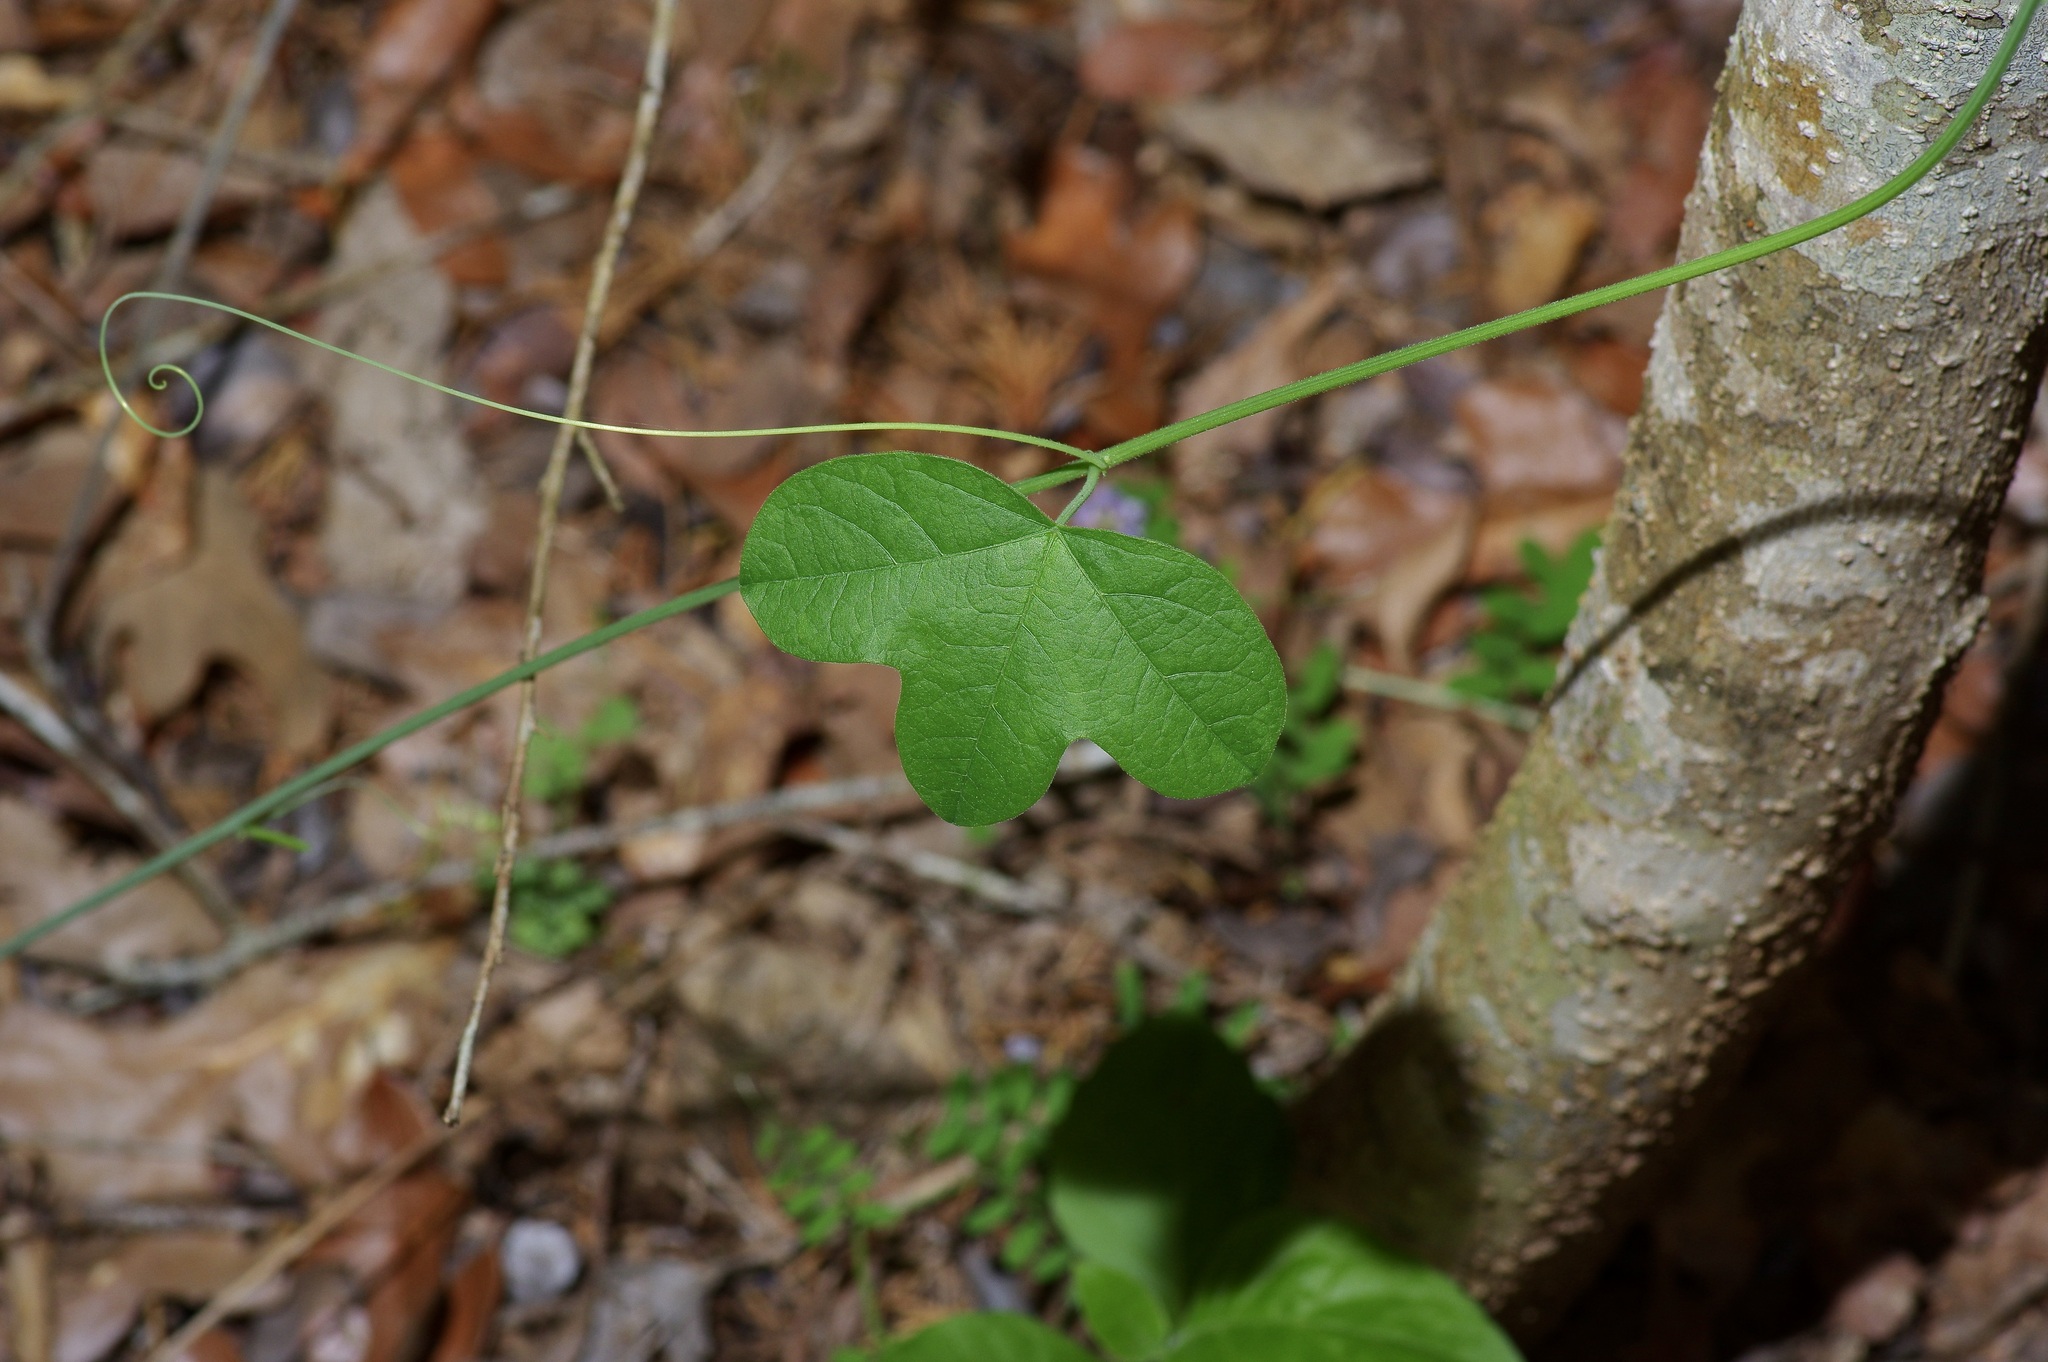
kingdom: Plantae
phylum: Tracheophyta
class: Magnoliopsida
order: Malpighiales
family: Passifloraceae
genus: Passiflora
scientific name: Passiflora lutea
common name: Yellow passionflower
